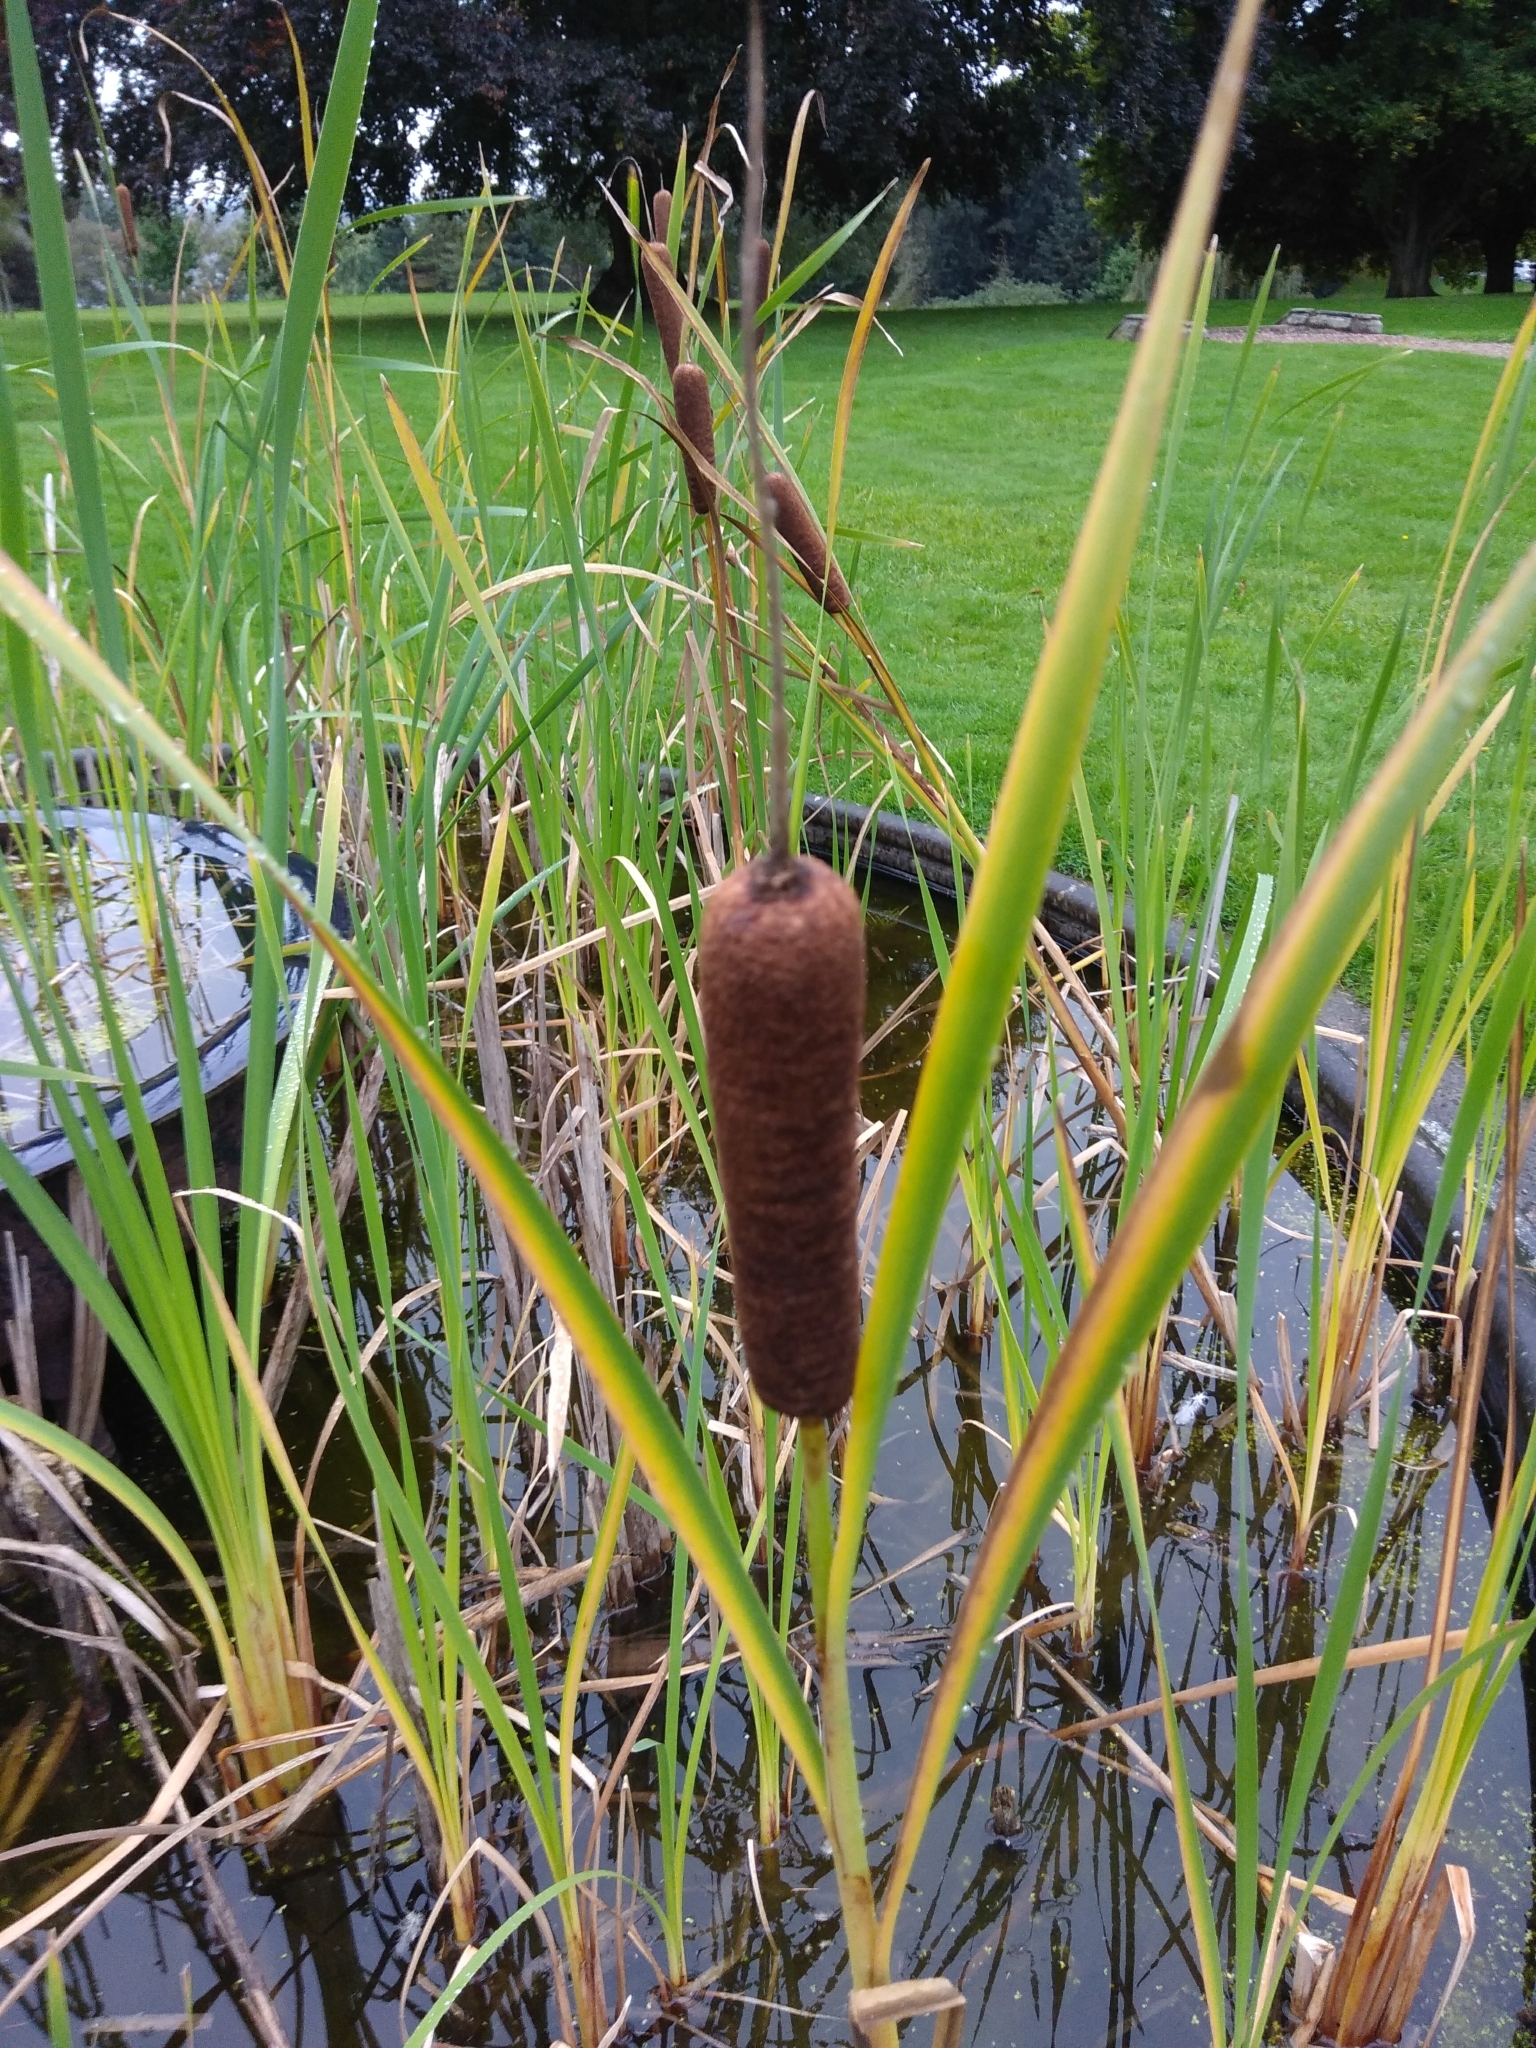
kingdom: Plantae
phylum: Tracheophyta
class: Liliopsida
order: Poales
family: Typhaceae
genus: Typha
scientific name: Typha latifolia
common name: Broadleaf cattail
